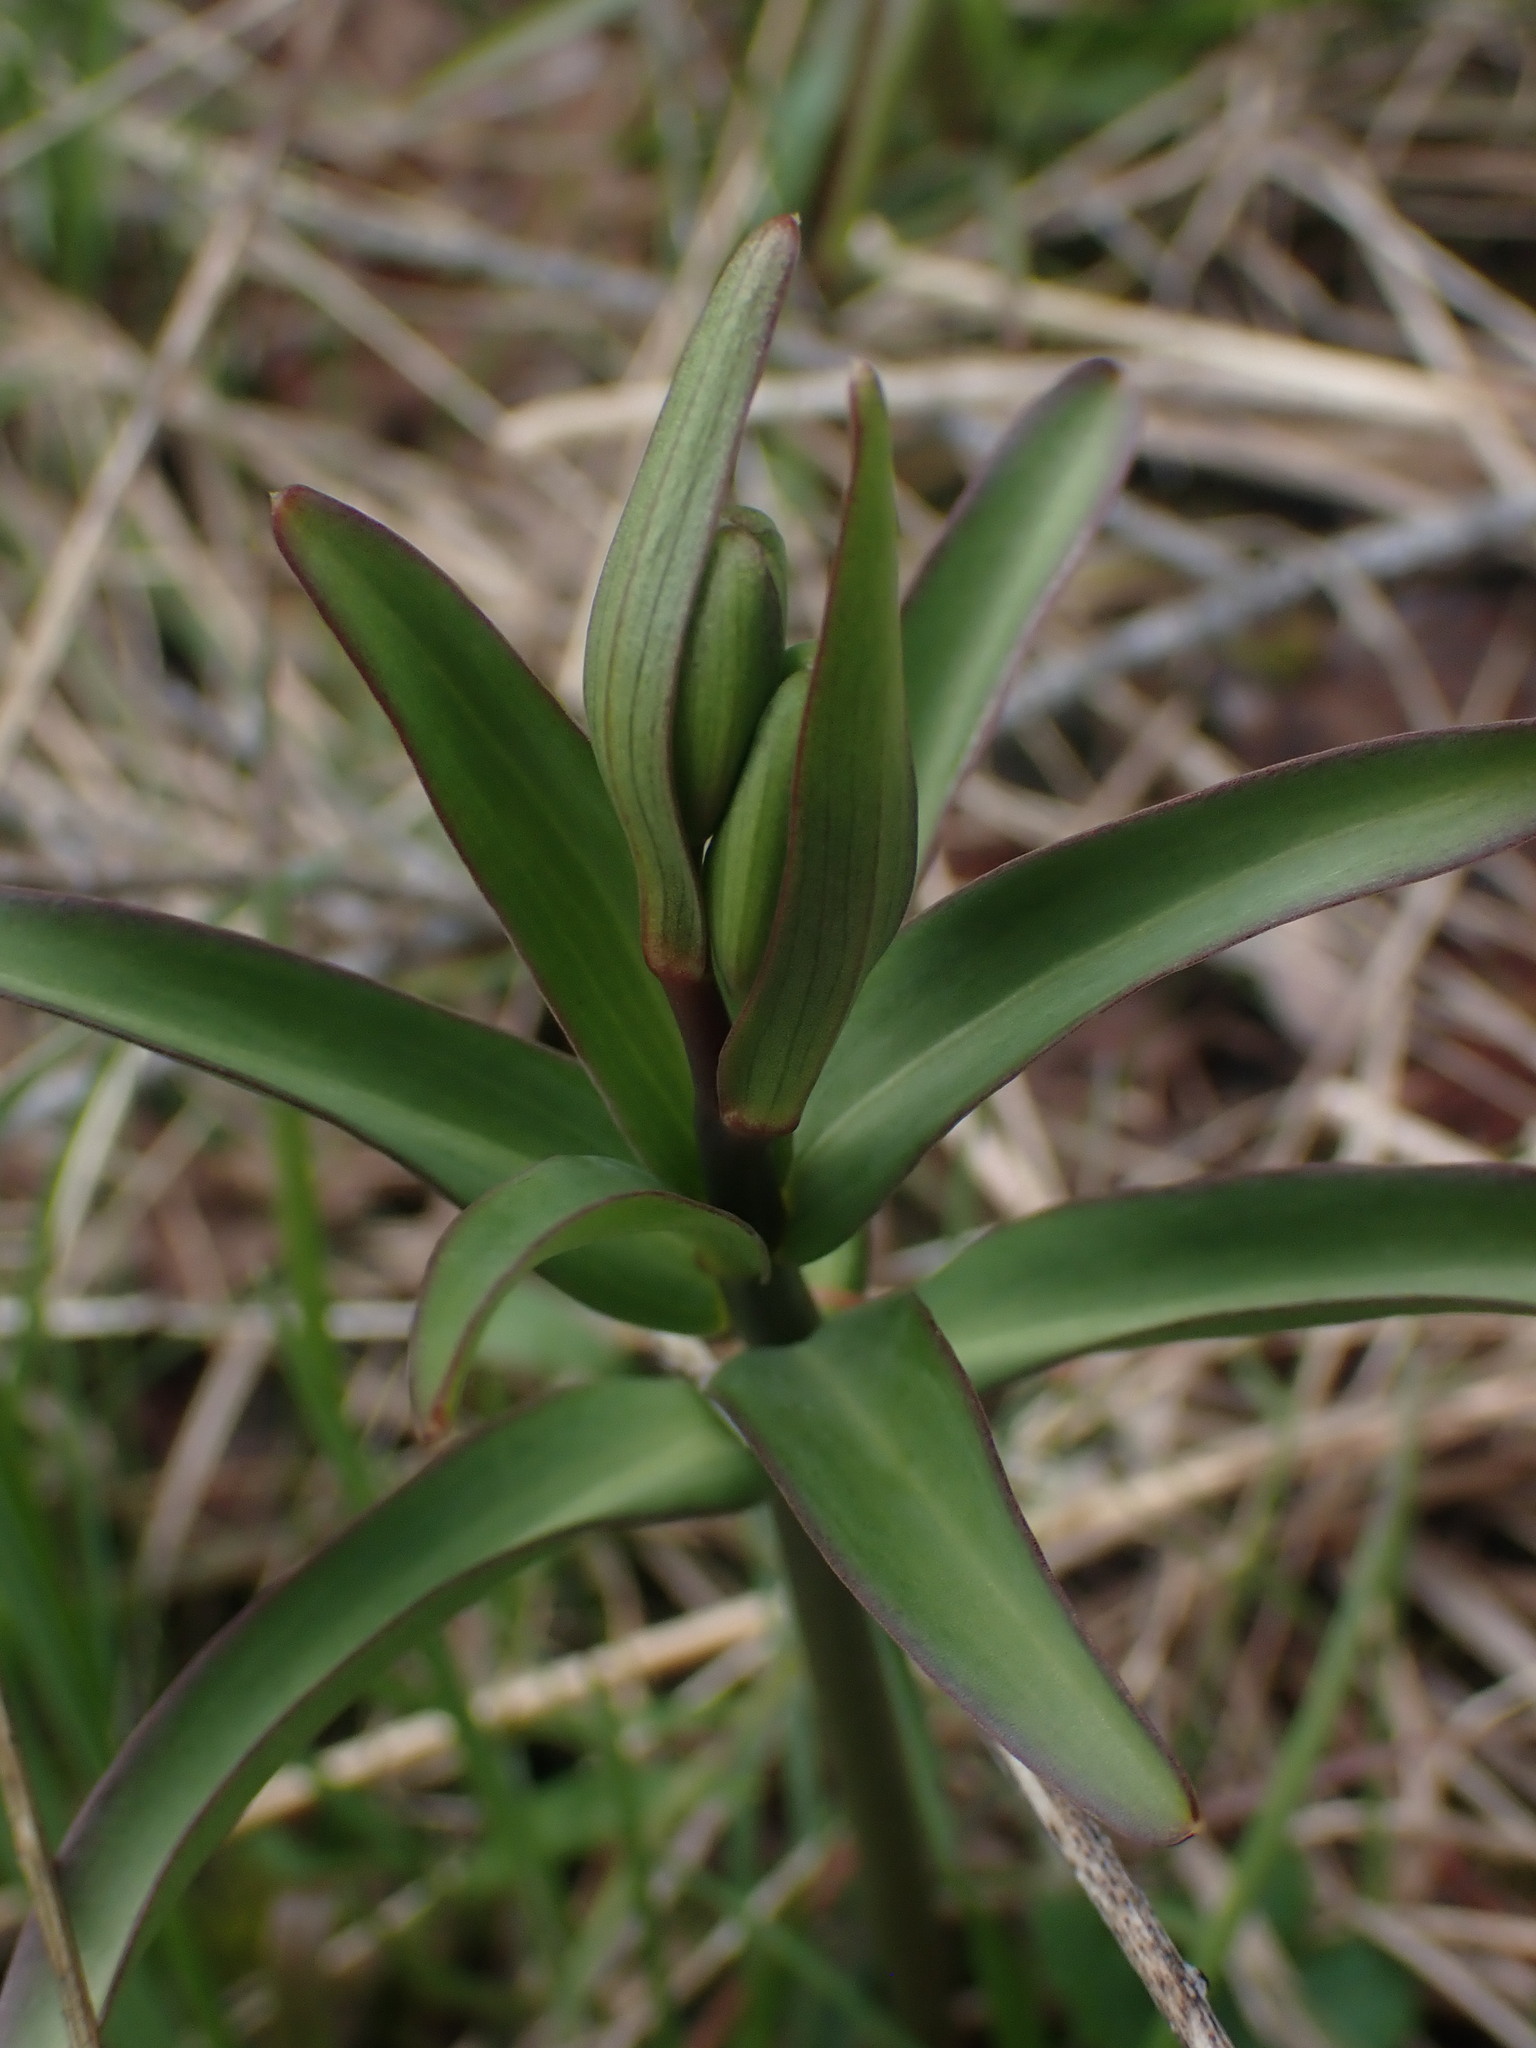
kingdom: Plantae
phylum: Tracheophyta
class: Liliopsida
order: Liliales
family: Liliaceae
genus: Fritillaria
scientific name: Fritillaria affinis
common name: Ojai fritillary
